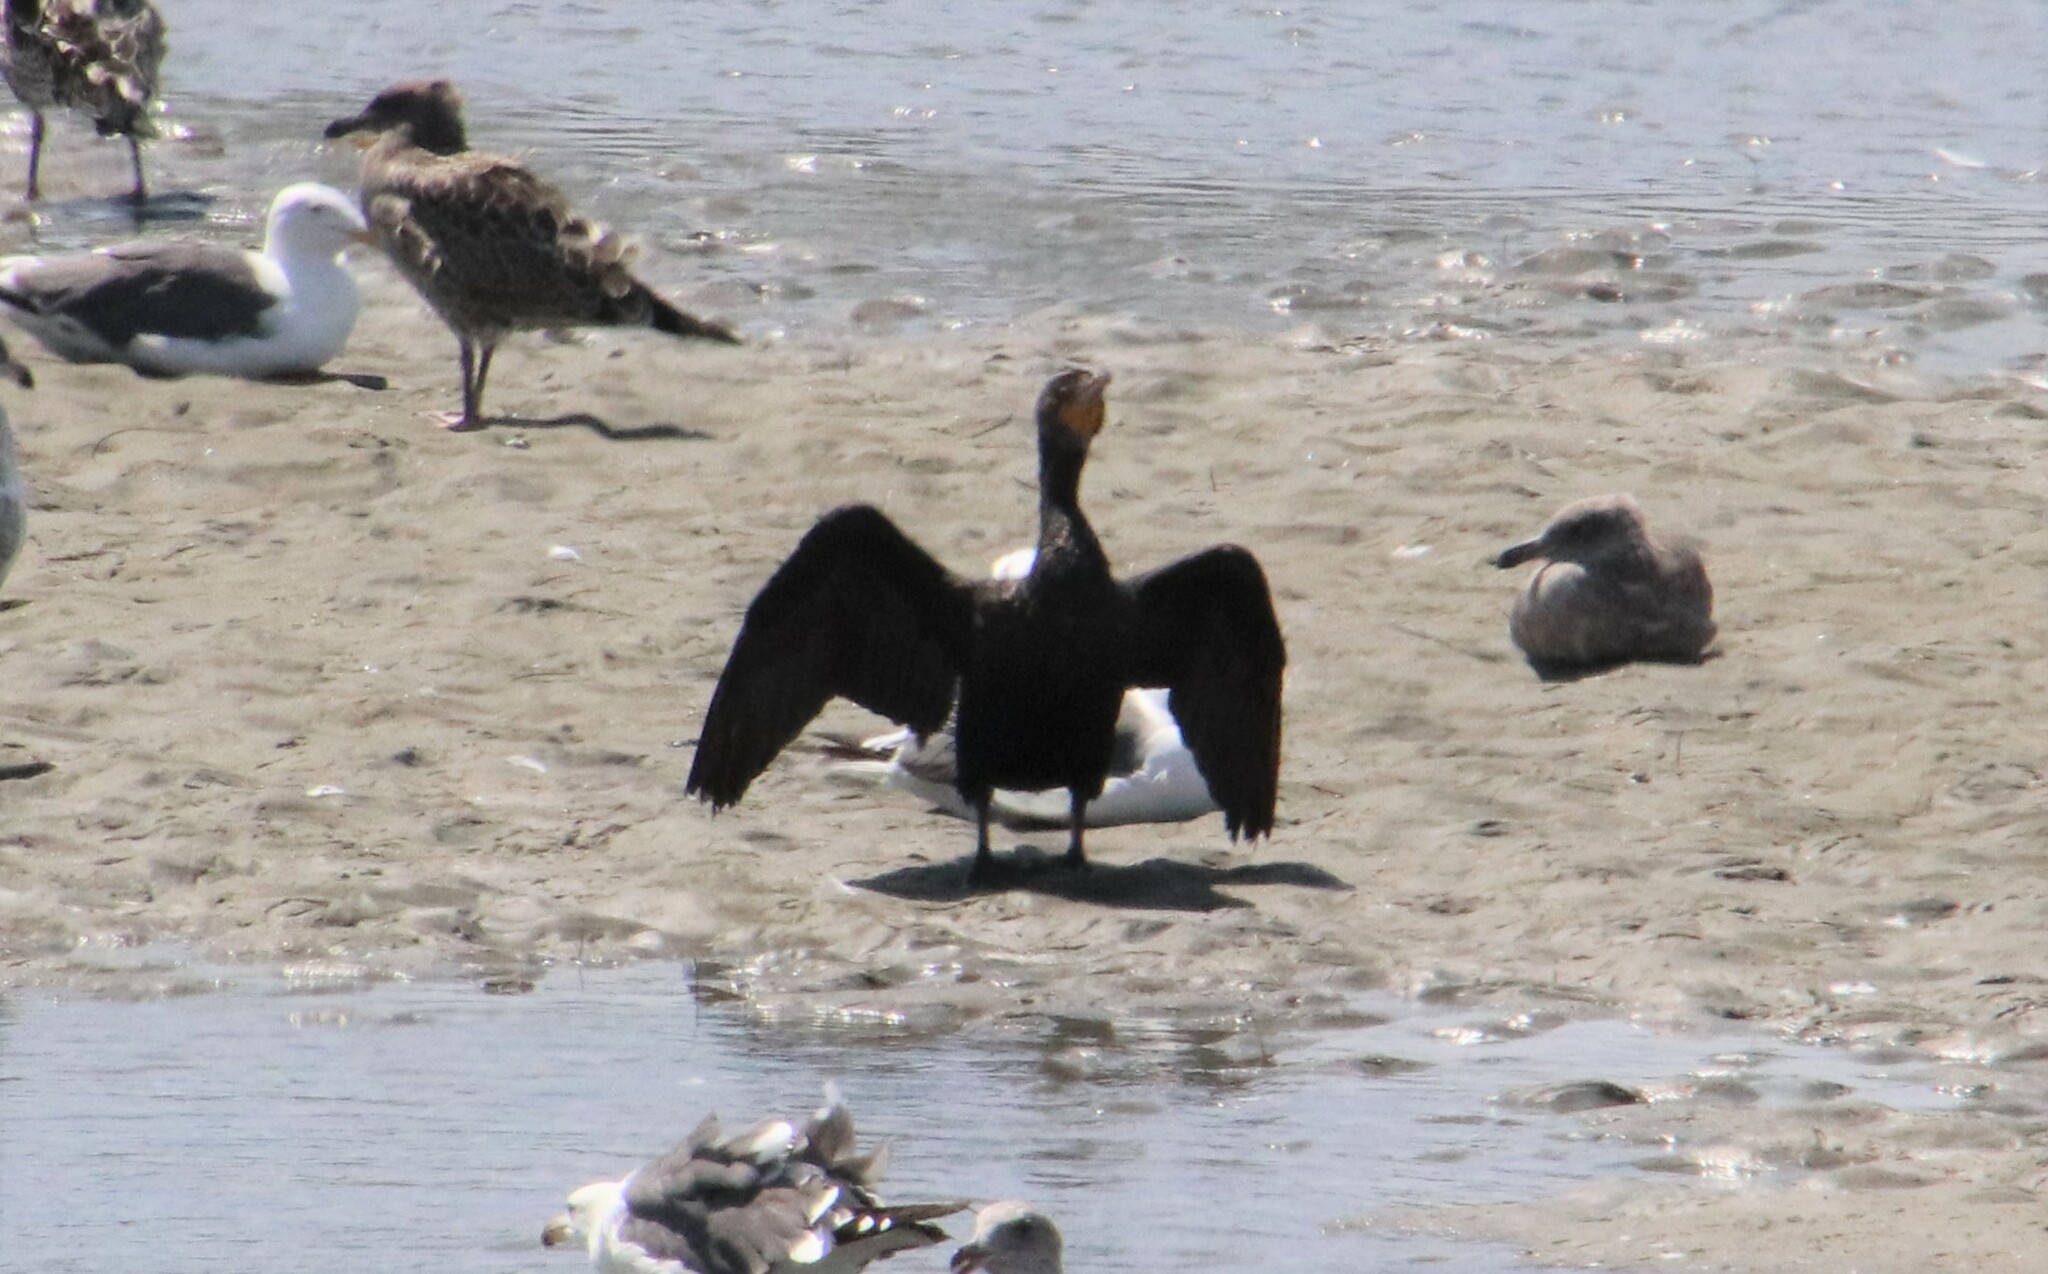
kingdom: Animalia
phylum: Chordata
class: Aves
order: Suliformes
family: Phalacrocoracidae
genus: Phalacrocorax
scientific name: Phalacrocorax auritus
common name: Double-crested cormorant
